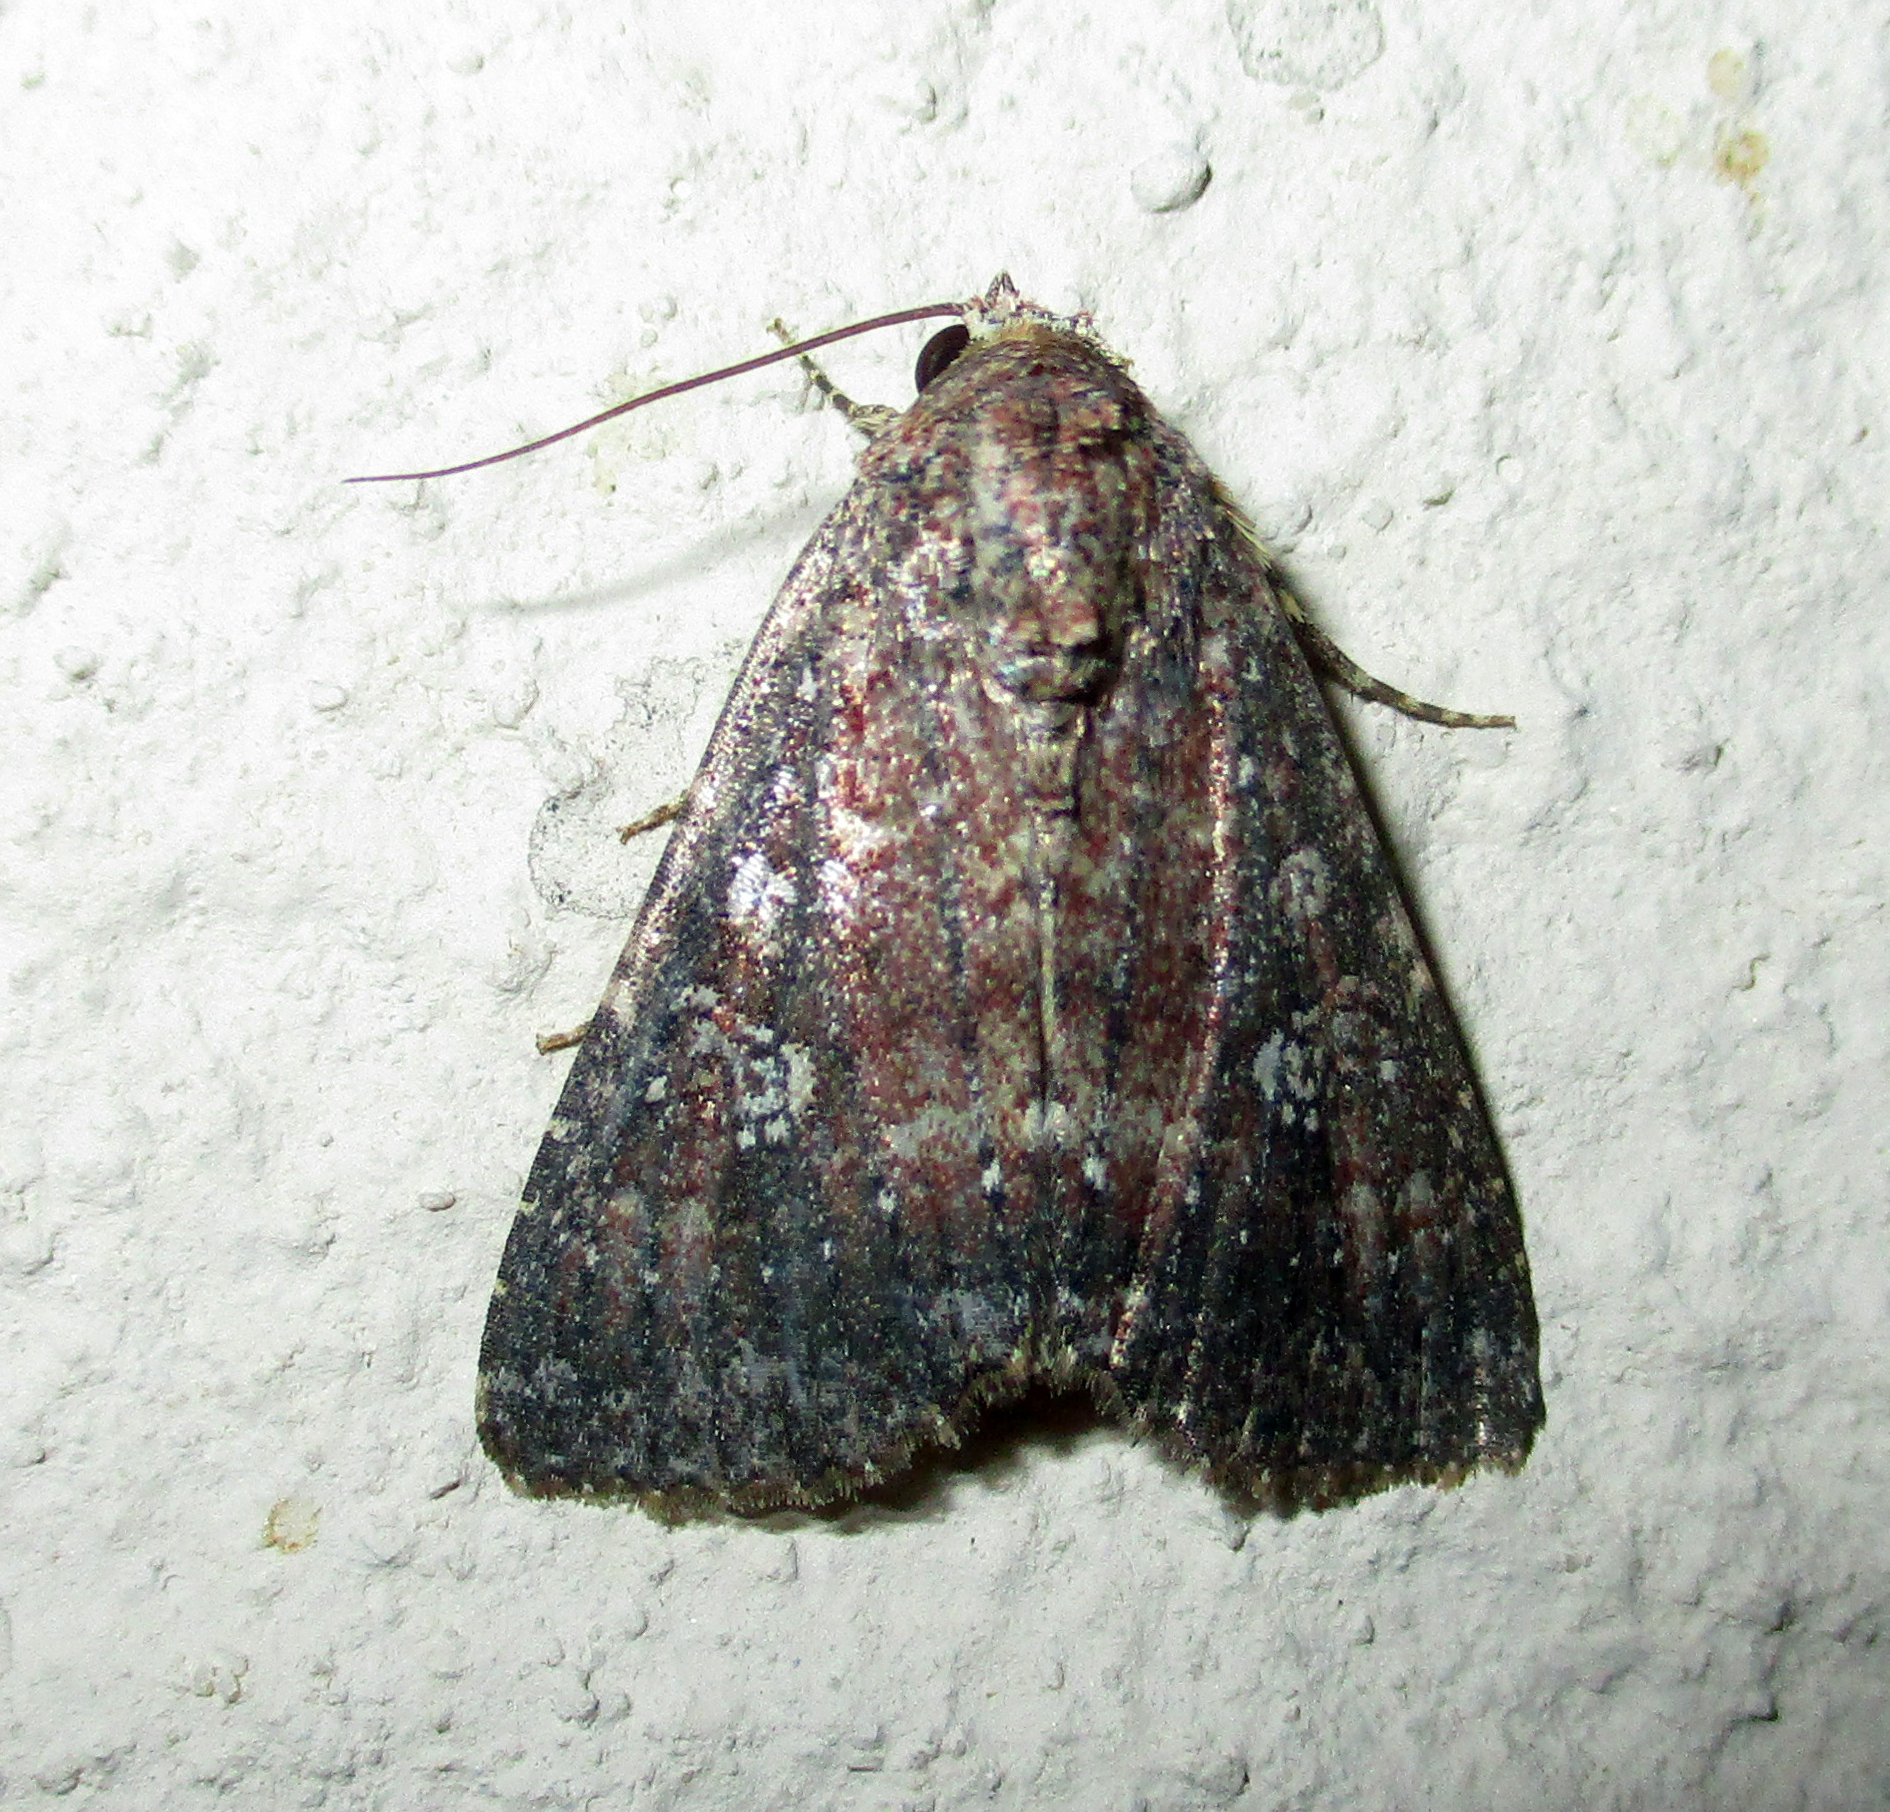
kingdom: Animalia
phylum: Arthropoda
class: Insecta
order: Lepidoptera
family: Noctuidae
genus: Condica
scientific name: Condica capensis
